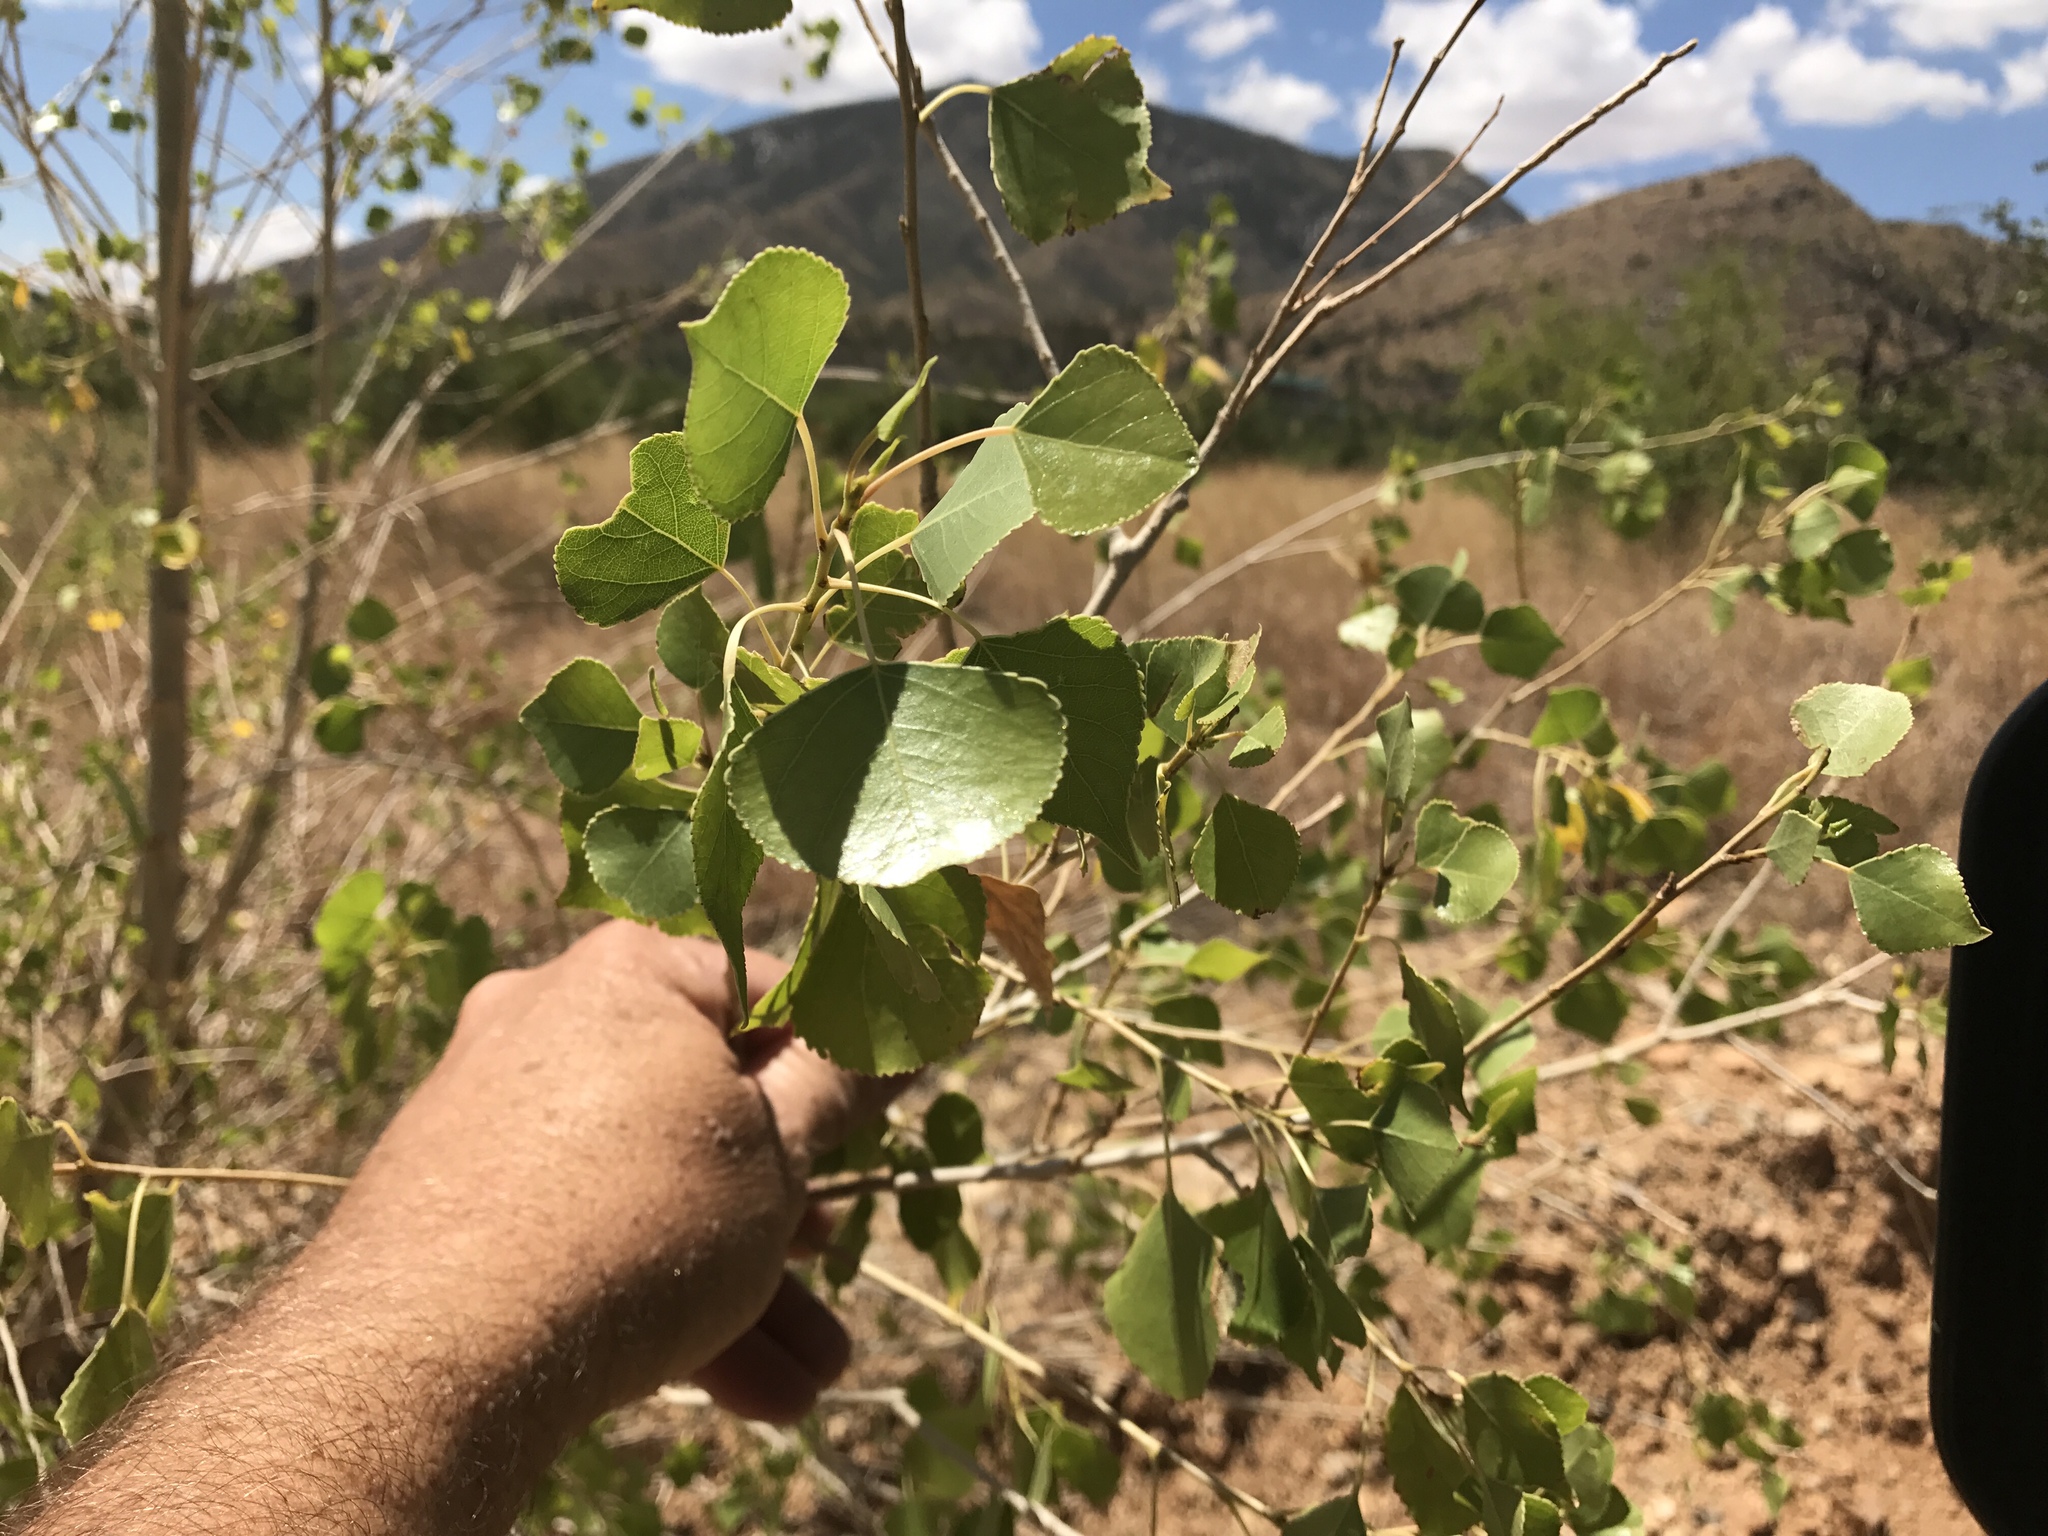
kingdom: Plantae
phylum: Tracheophyta
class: Magnoliopsida
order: Malpighiales
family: Salicaceae
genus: Populus
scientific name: Populus fremontii
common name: Fremont's cottonwood
